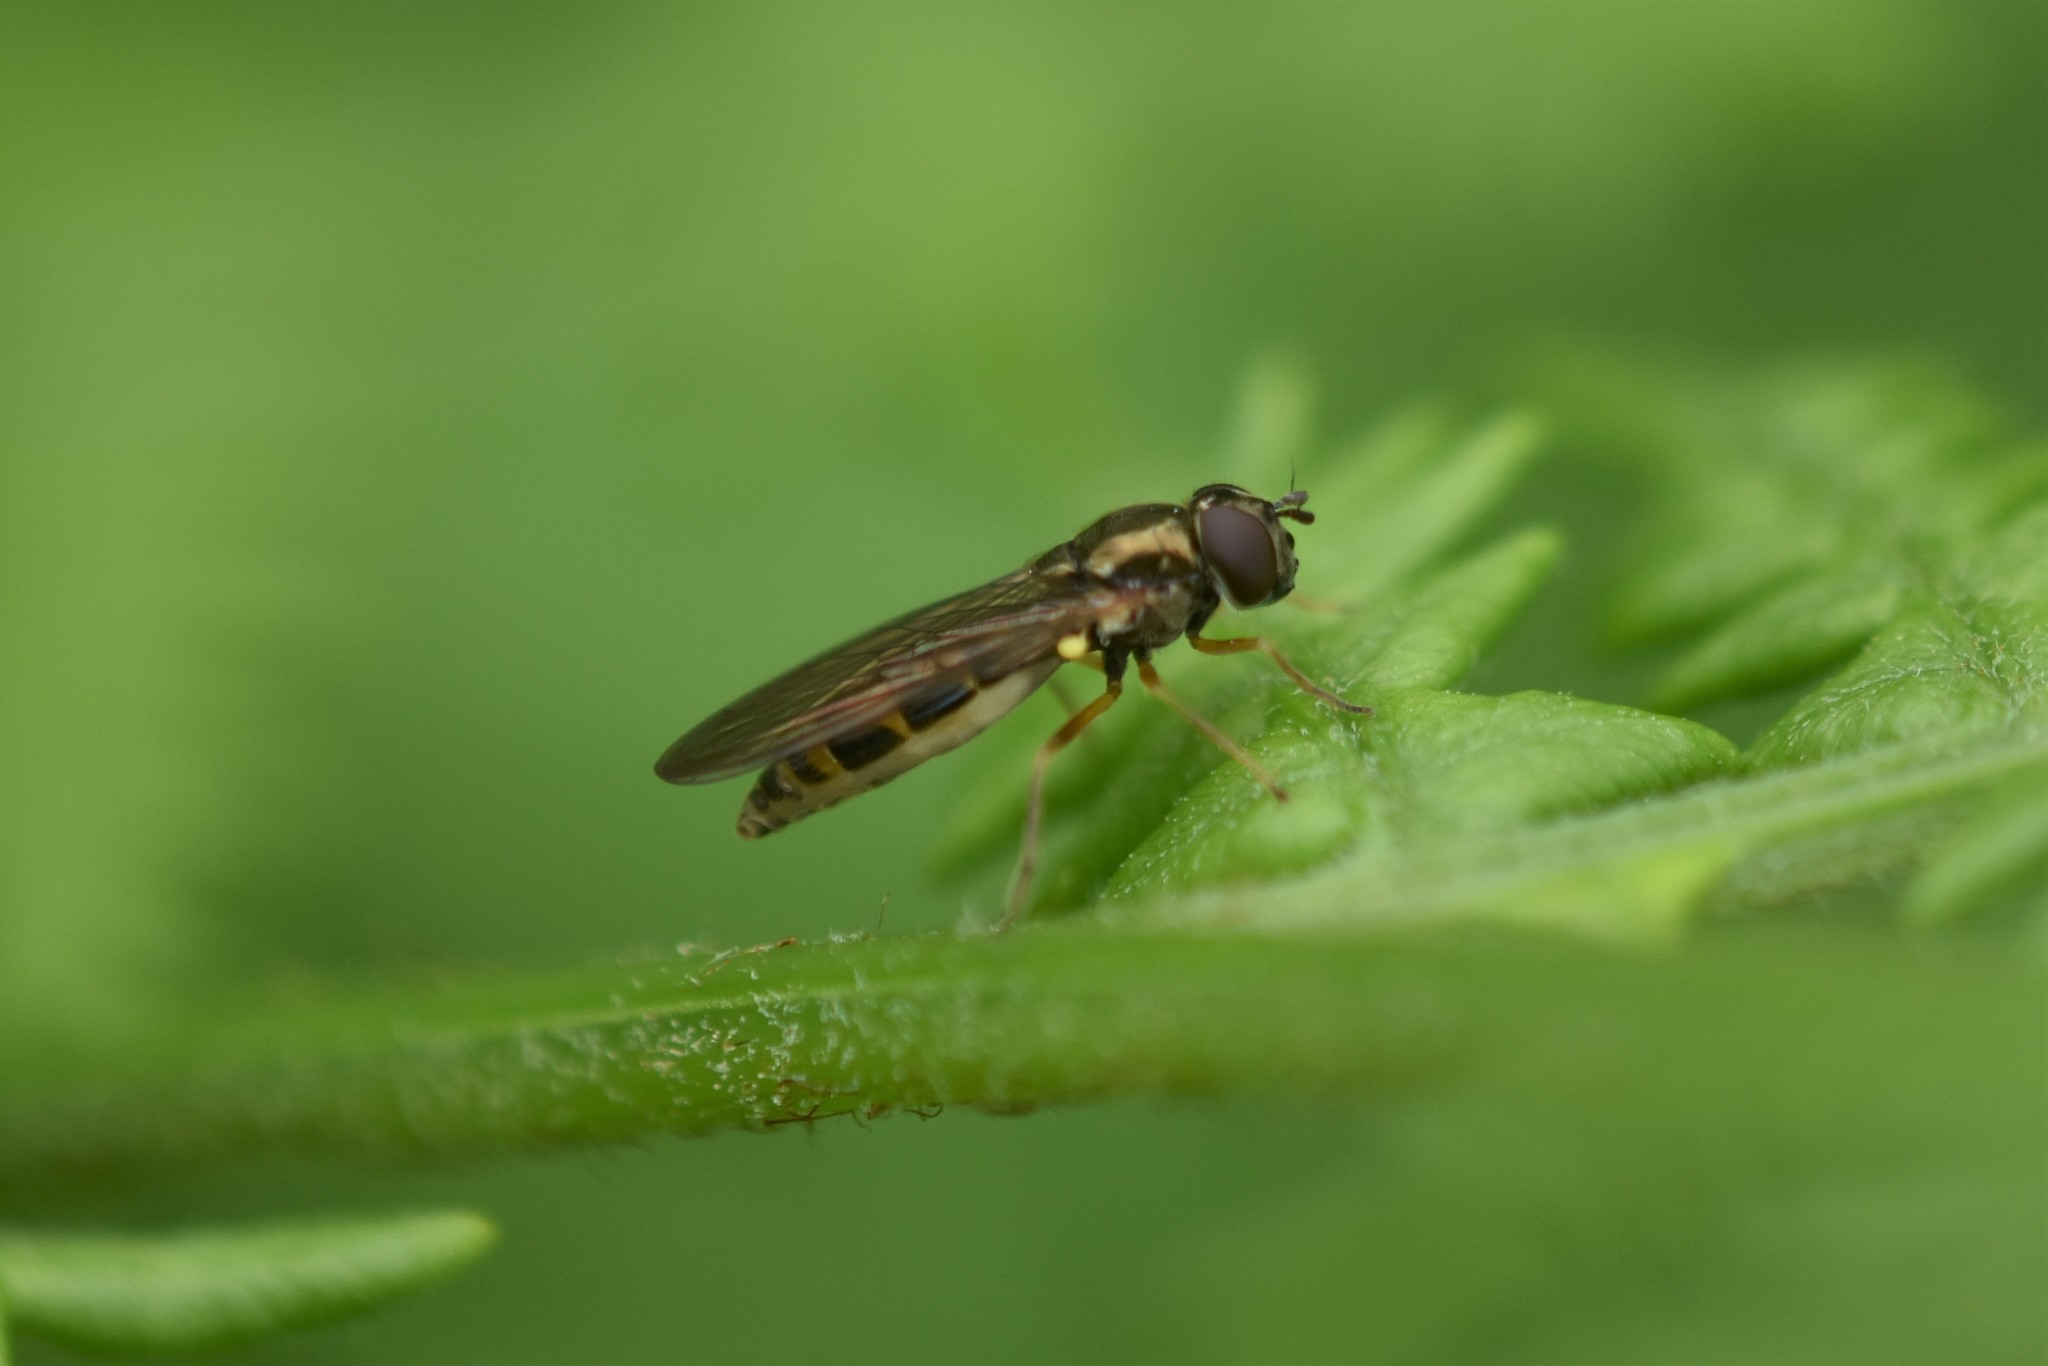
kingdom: Animalia
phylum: Arthropoda
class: Insecta
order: Diptera
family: Syrphidae
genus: Melanostoma
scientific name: Melanostoma mellina
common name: Hover fly
